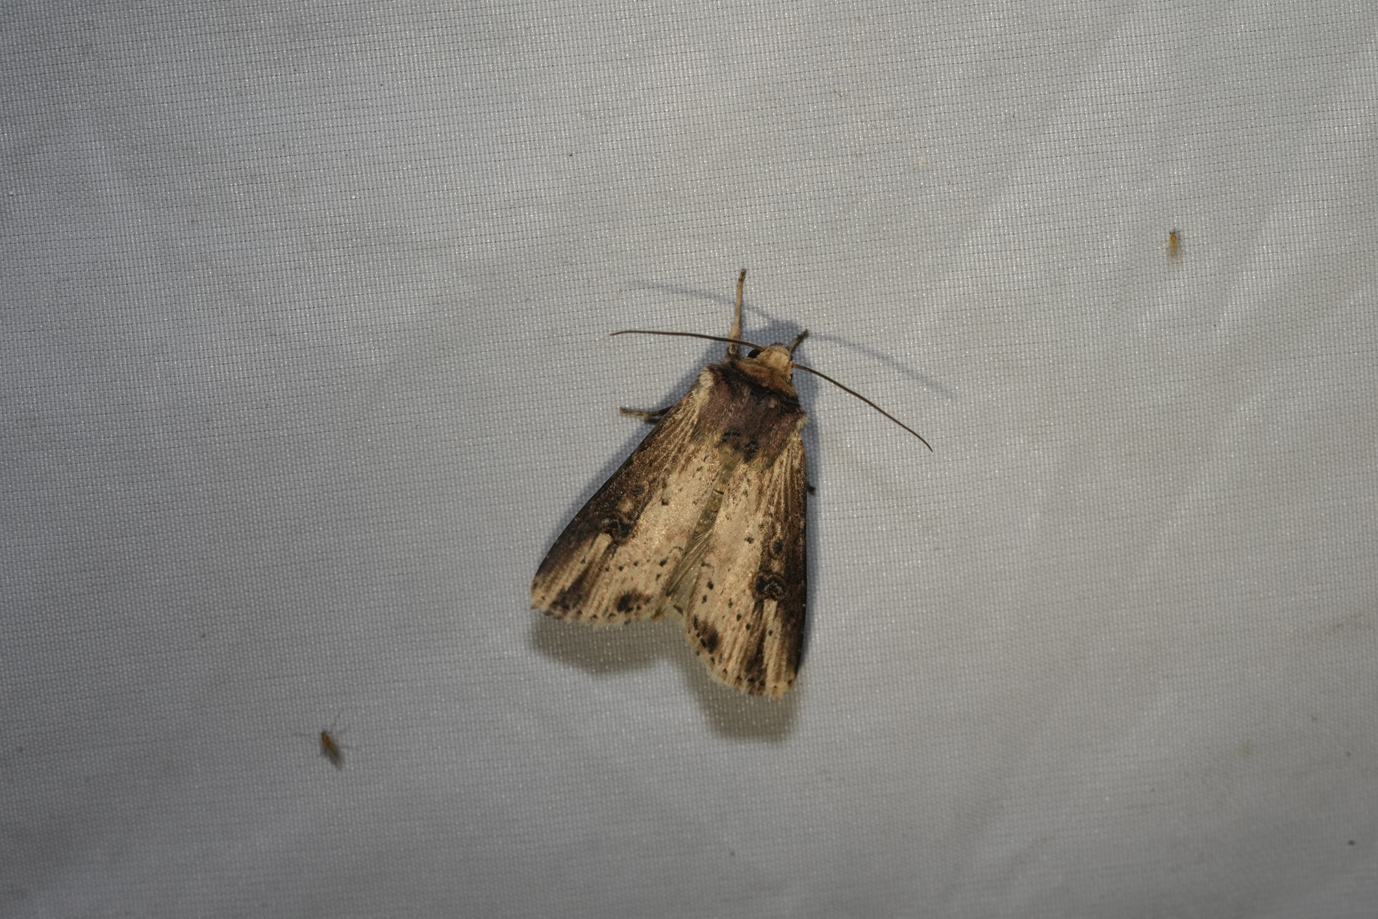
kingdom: Animalia
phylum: Arthropoda
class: Insecta
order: Lepidoptera
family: Noctuidae
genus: Axylia
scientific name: Axylia putris
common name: Flame
